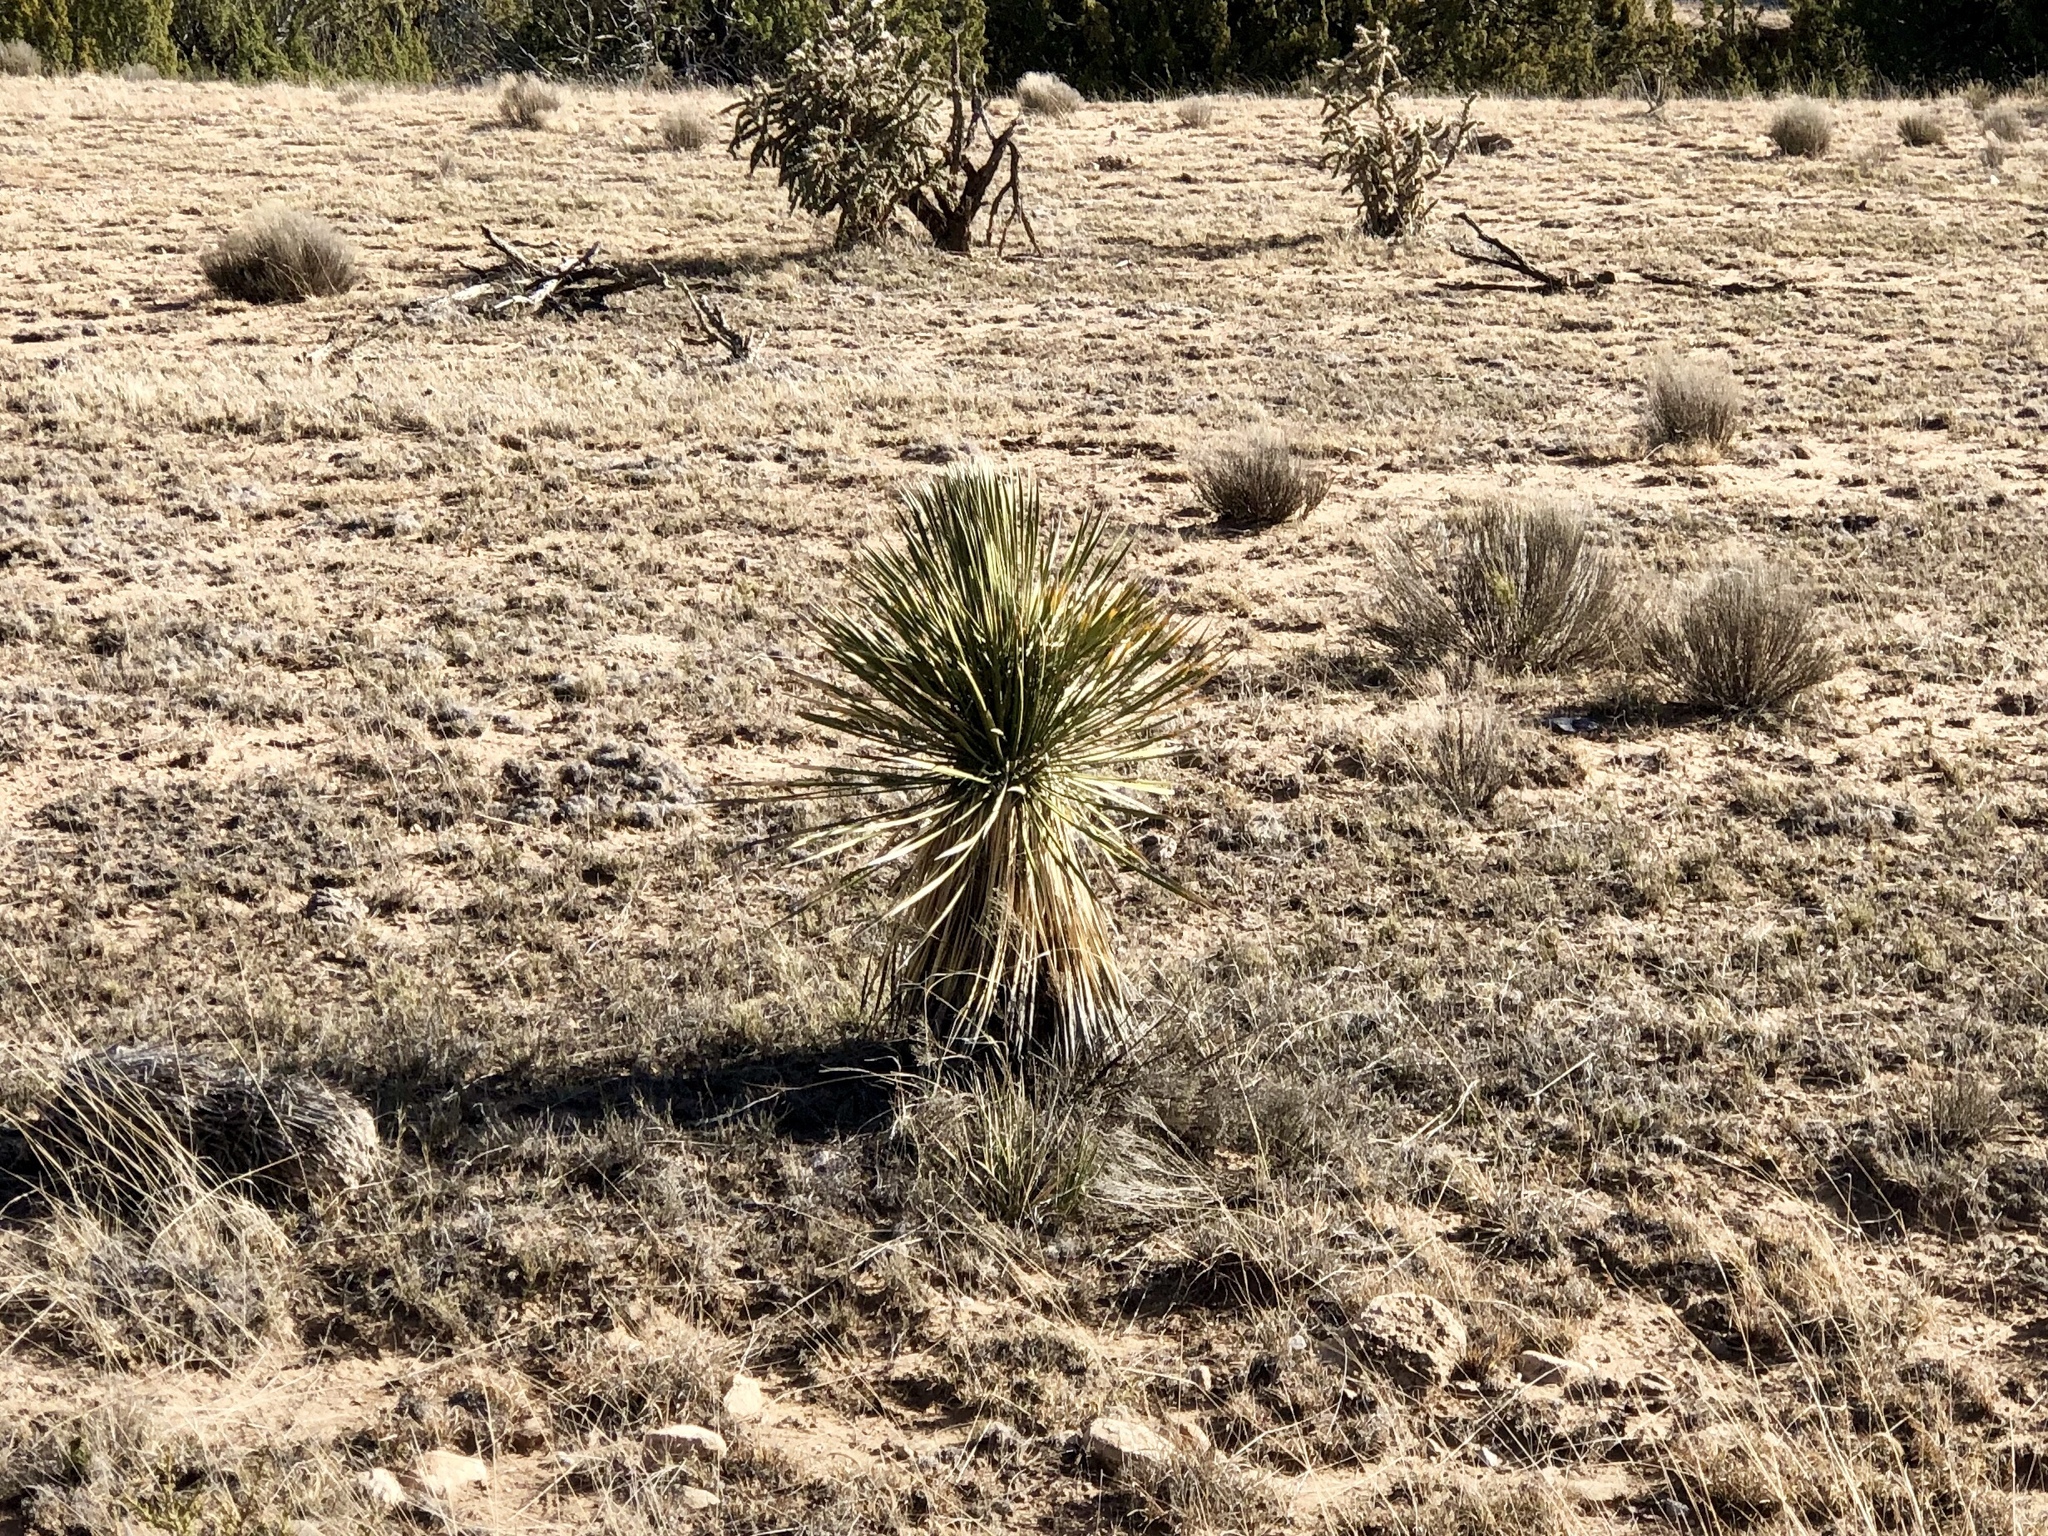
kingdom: Plantae
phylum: Tracheophyta
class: Liliopsida
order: Asparagales
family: Asparagaceae
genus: Yucca
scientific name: Yucca elata
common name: Palmella
